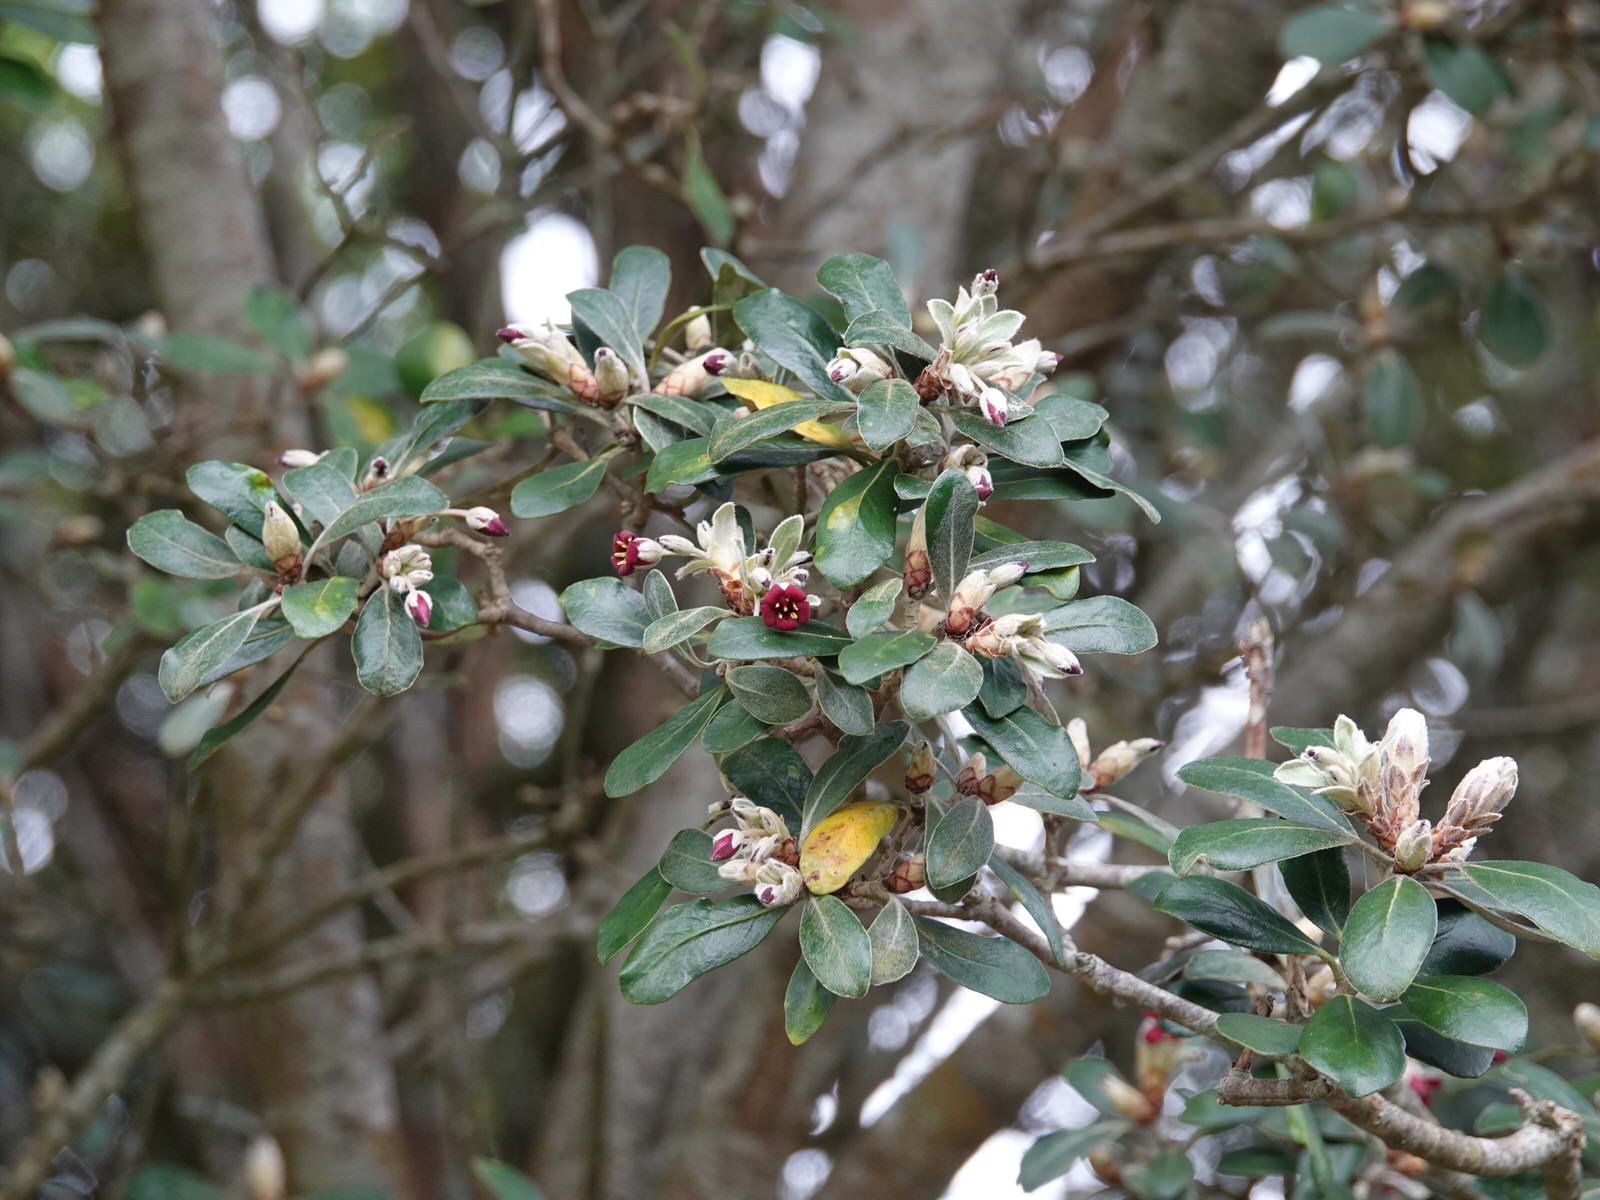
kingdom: Plantae
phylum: Tracheophyta
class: Magnoliopsida
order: Apiales
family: Pittosporaceae
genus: Pittosporum
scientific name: Pittosporum crassifolium
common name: Karo
